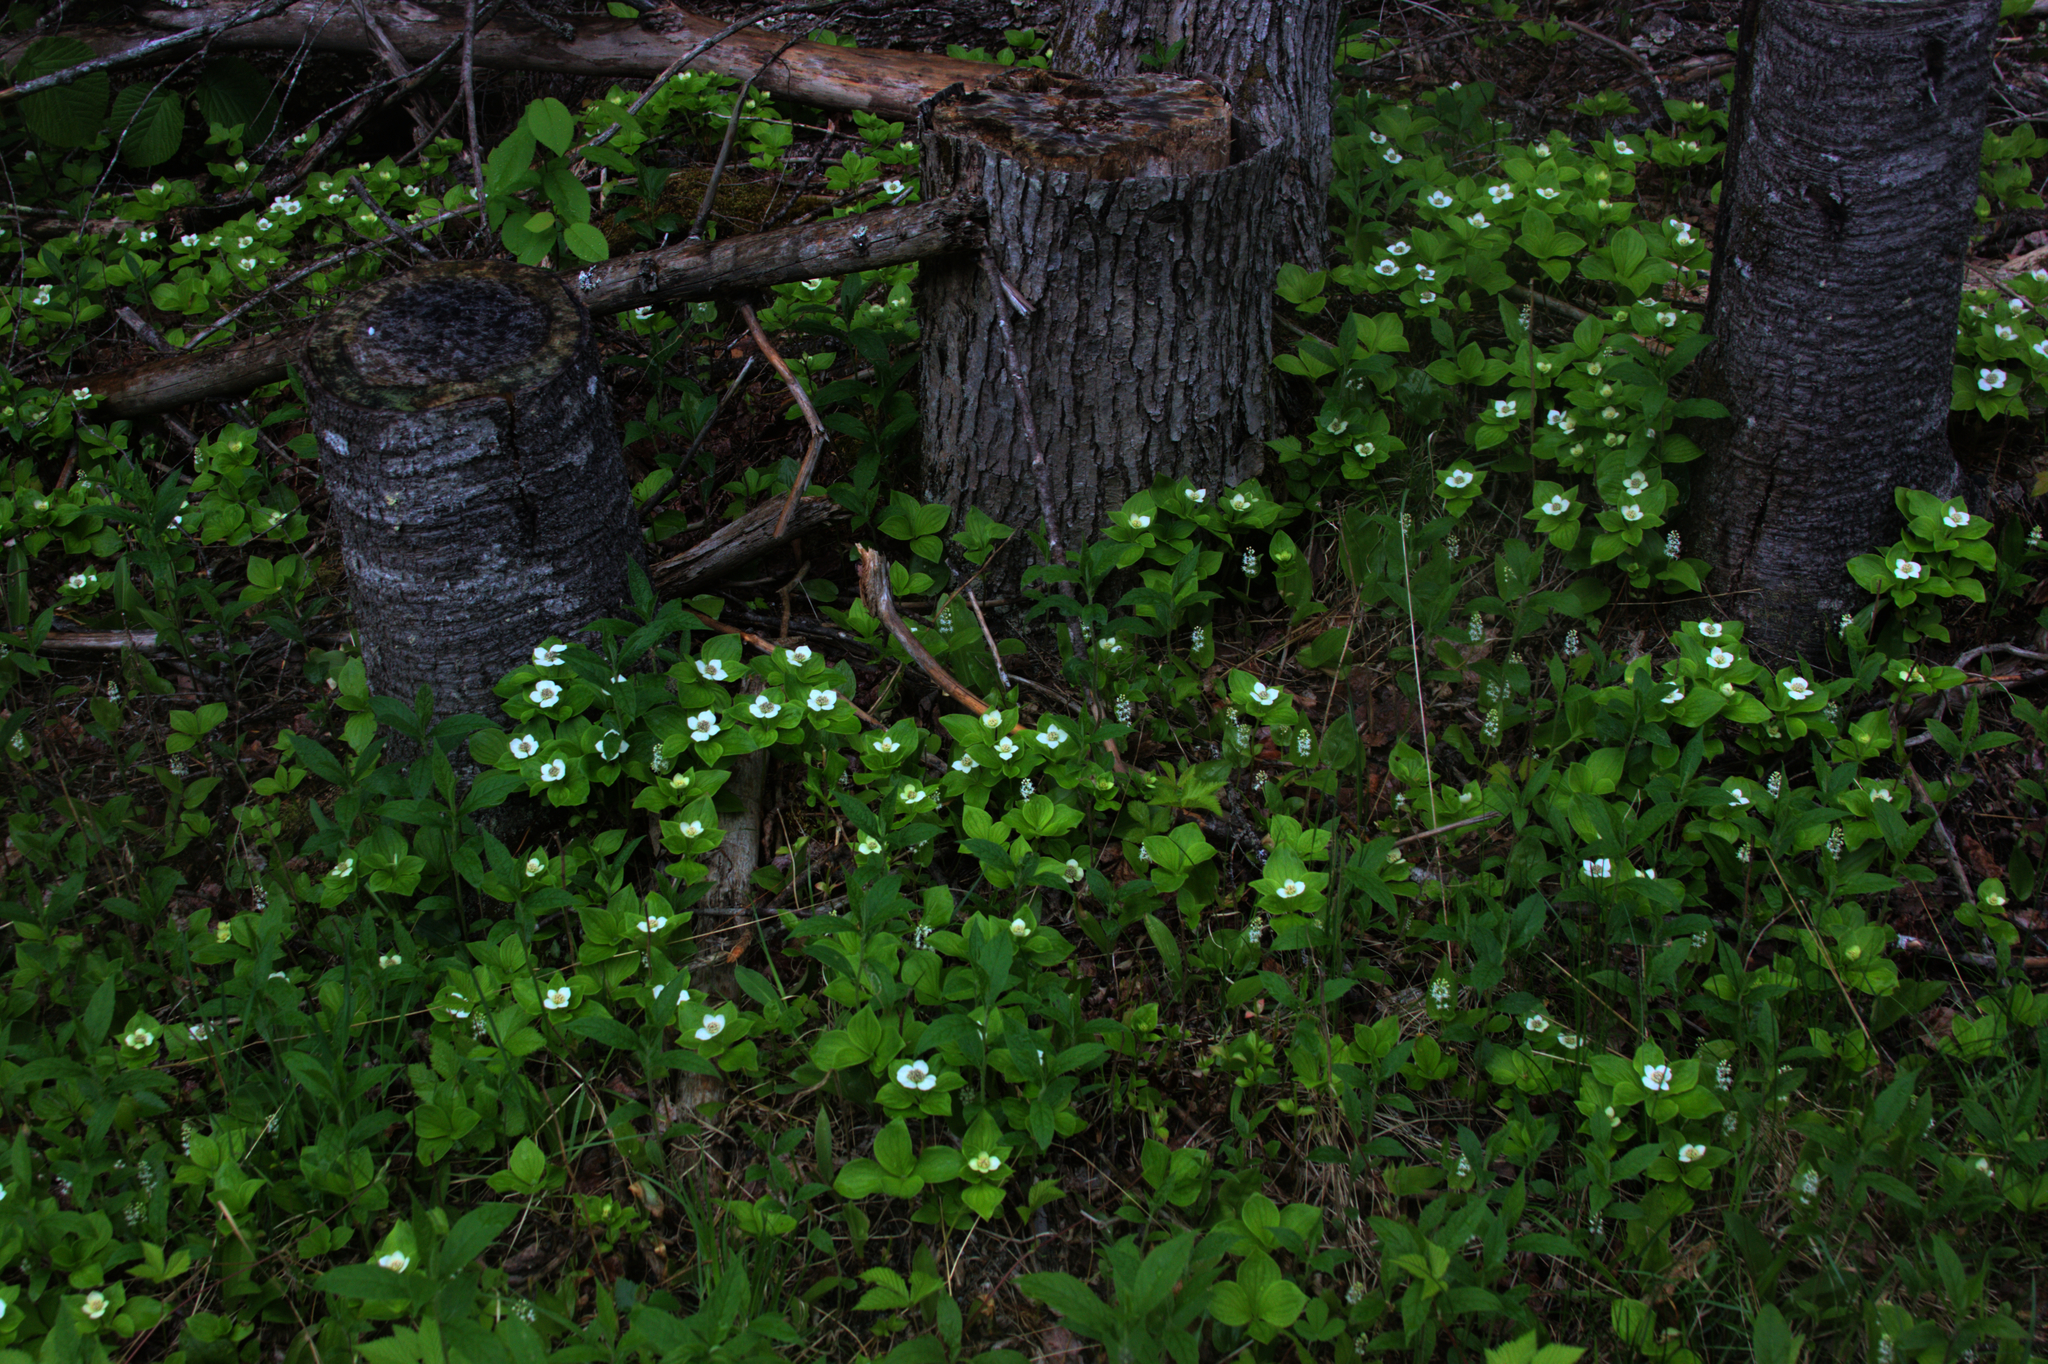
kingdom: Plantae
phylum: Tracheophyta
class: Magnoliopsida
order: Cornales
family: Cornaceae
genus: Cornus
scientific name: Cornus canadensis
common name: Creeping dogwood
